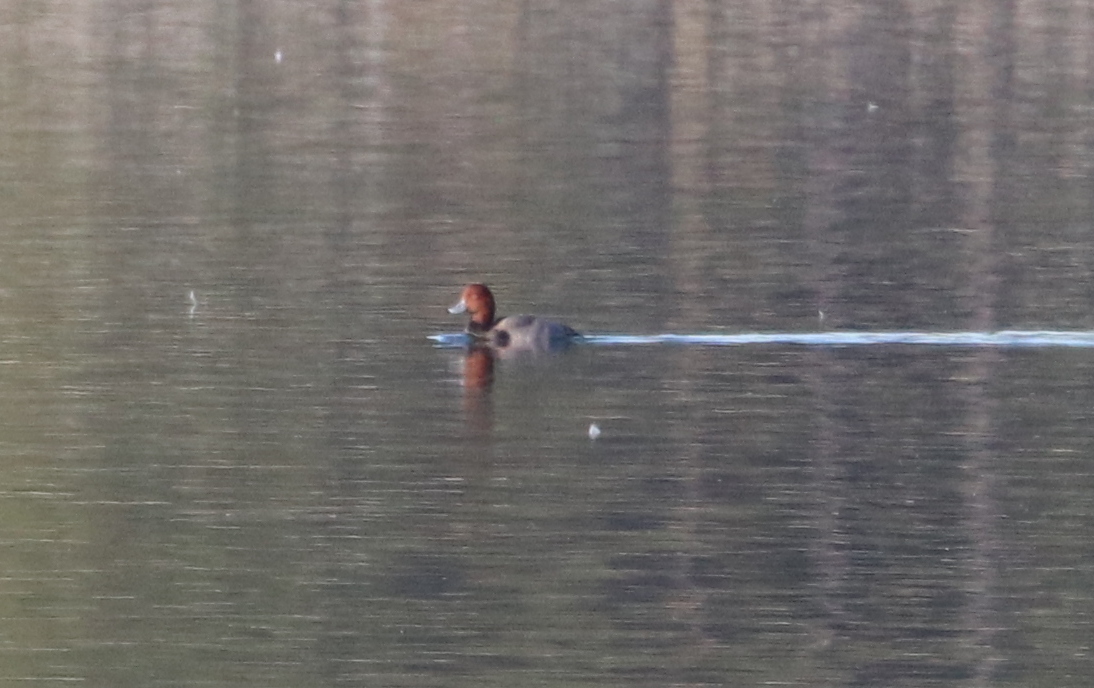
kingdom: Animalia
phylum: Chordata
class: Aves
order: Anseriformes
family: Anatidae
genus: Aythya
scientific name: Aythya americana
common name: Redhead
